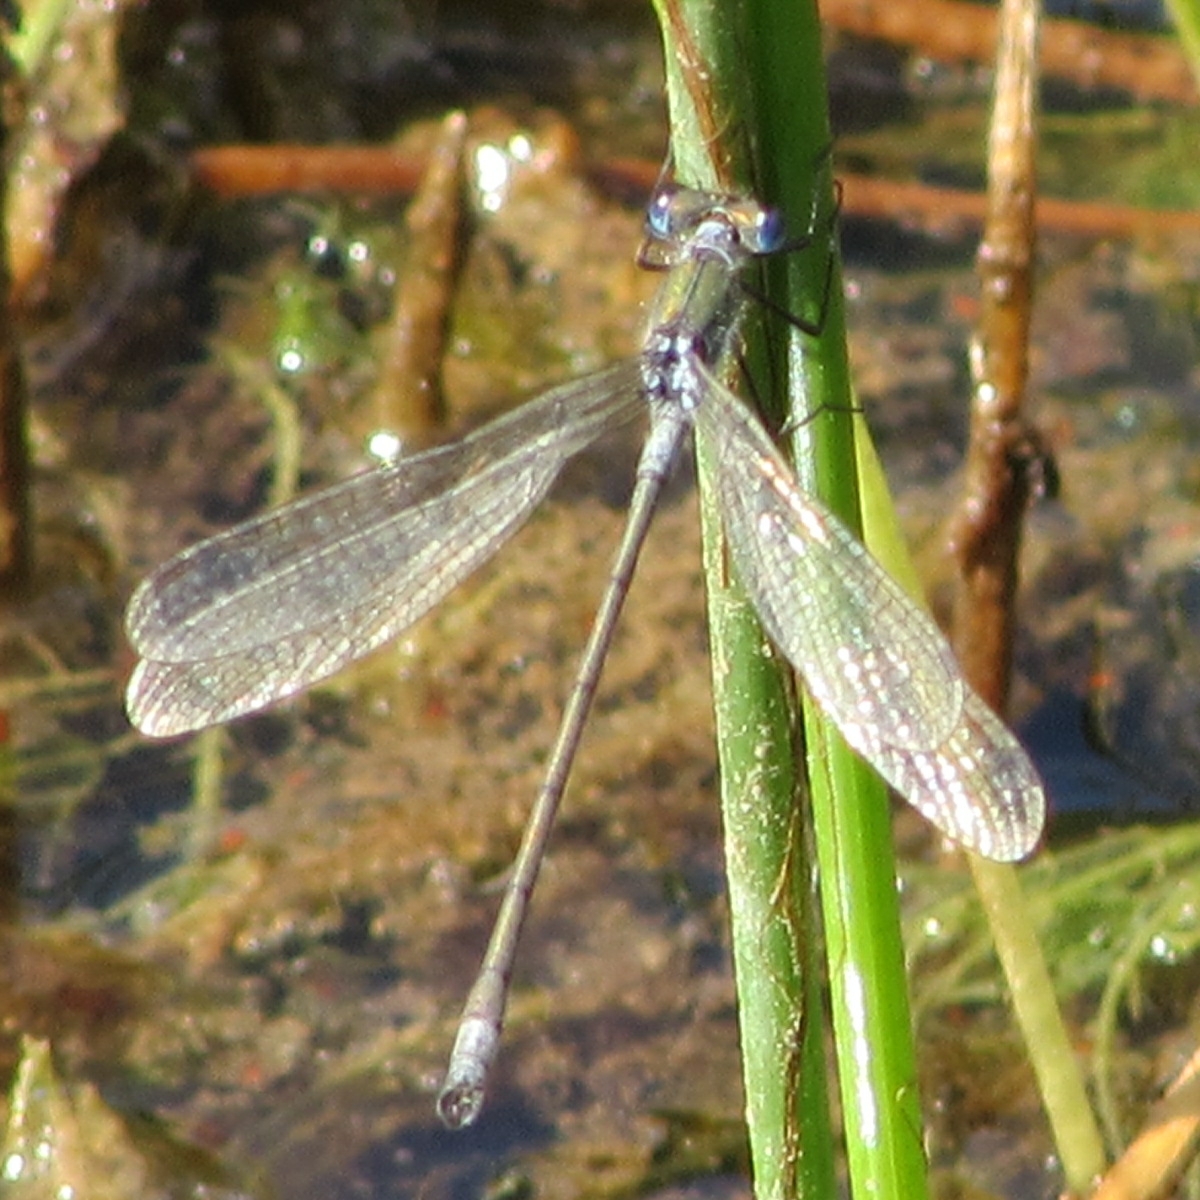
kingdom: Animalia
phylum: Arthropoda
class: Insecta
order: Odonata
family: Lestidae
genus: Lestes
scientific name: Lestes sponsa
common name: Common spreadwing
